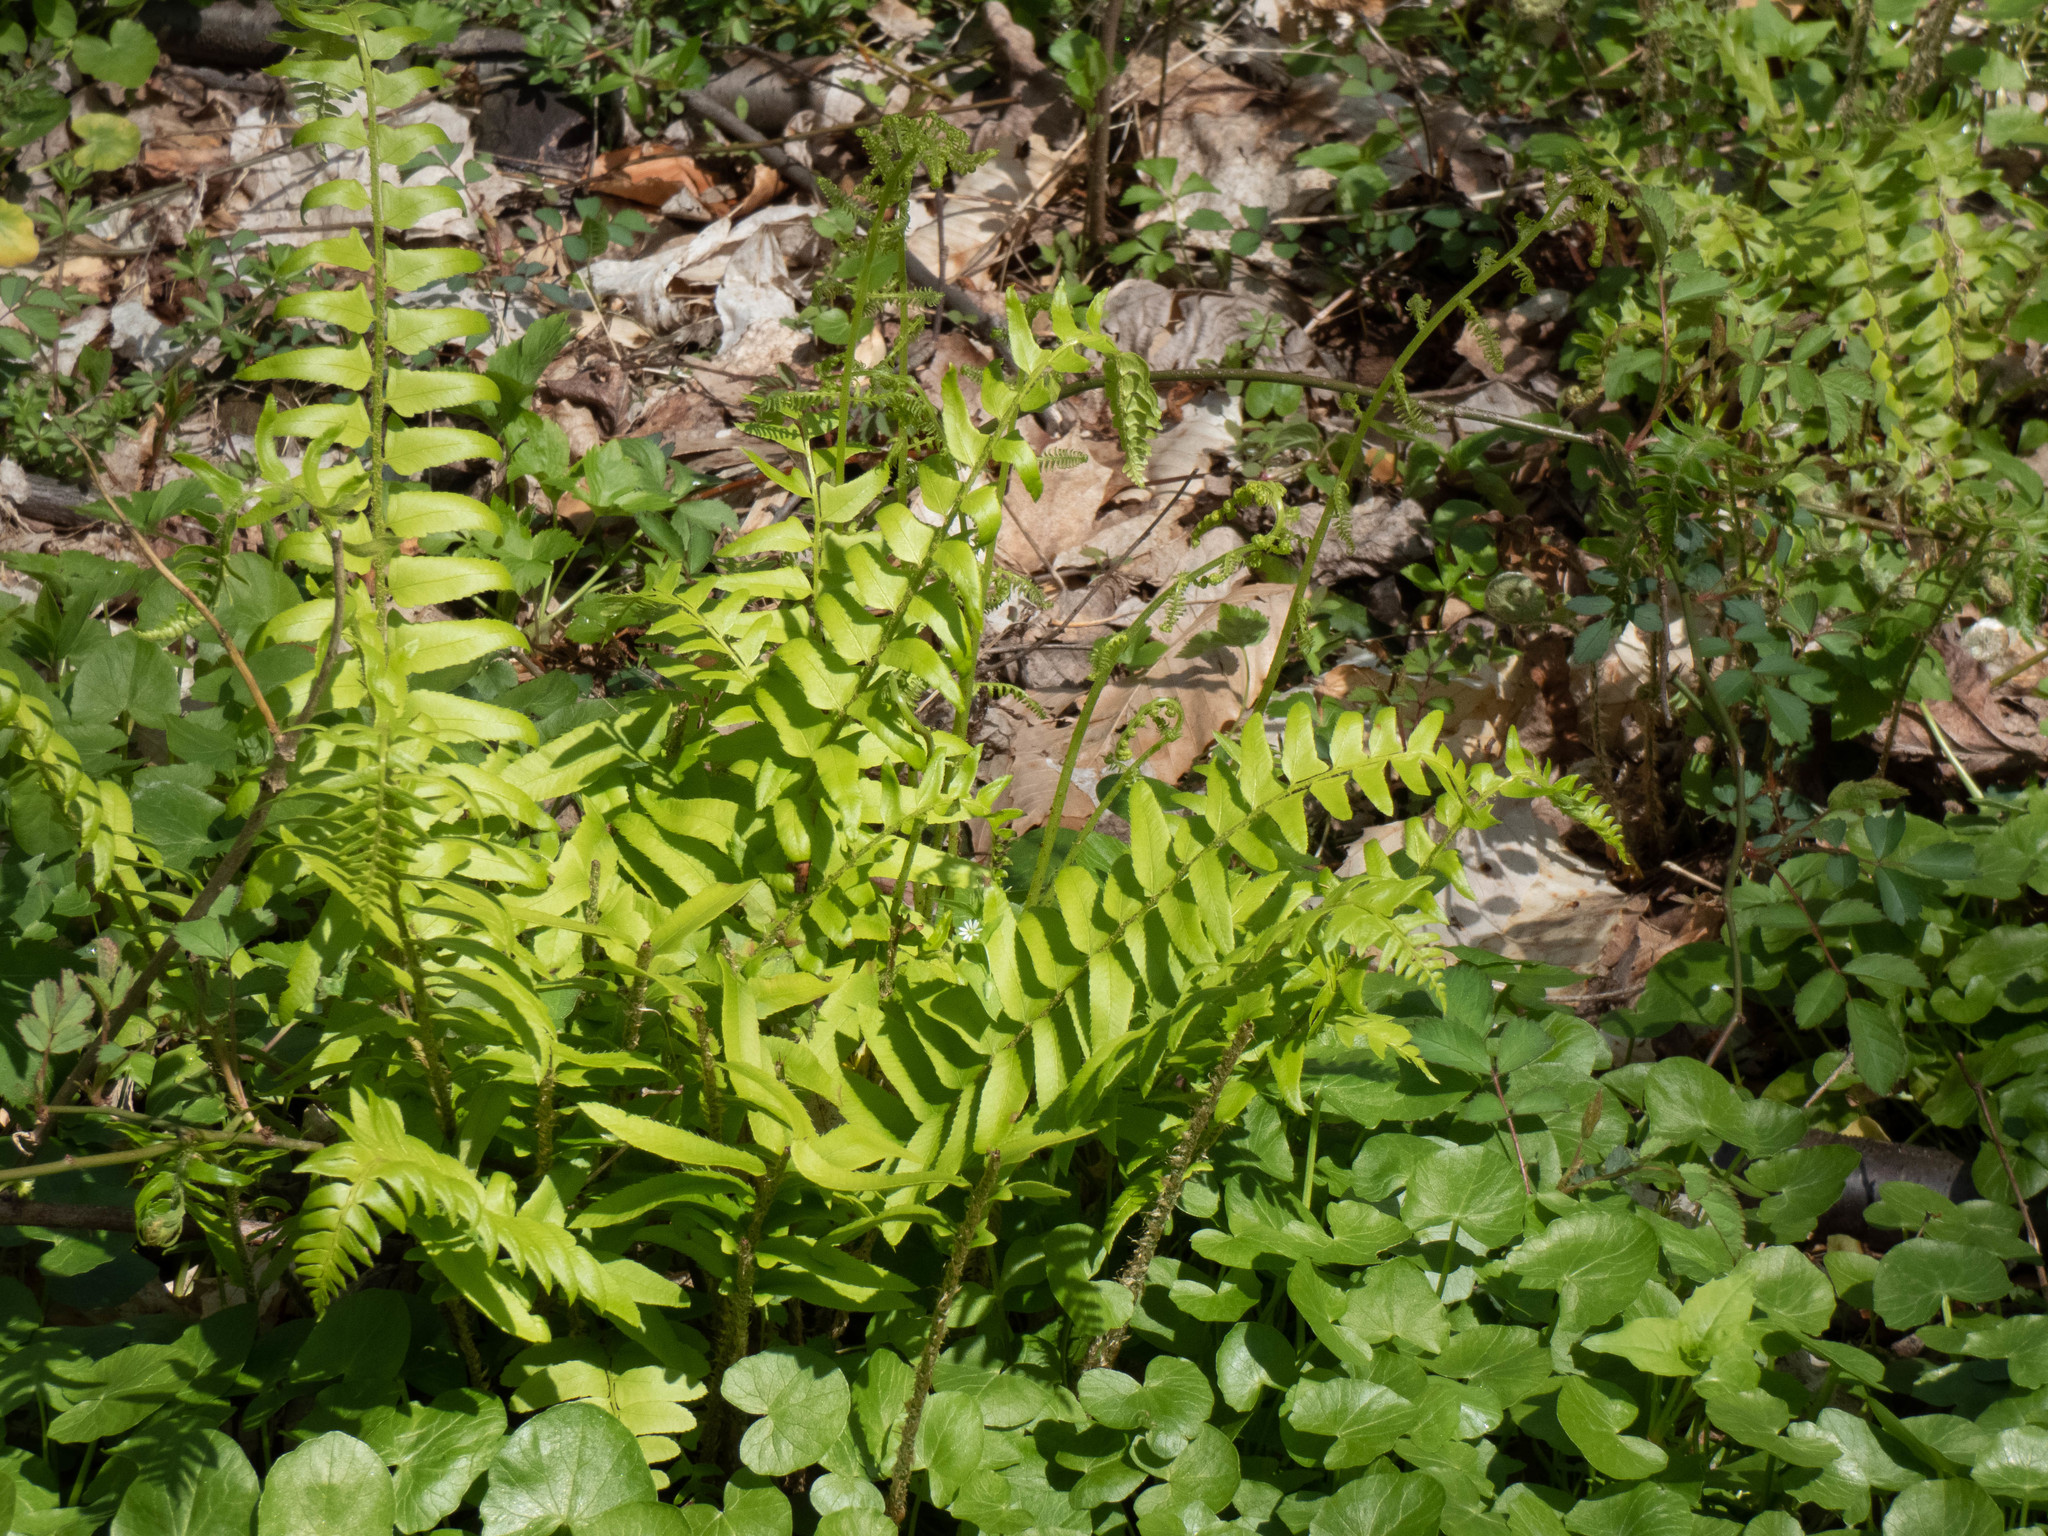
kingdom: Plantae
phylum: Tracheophyta
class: Polypodiopsida
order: Polypodiales
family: Dryopteridaceae
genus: Polystichum
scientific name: Polystichum acrostichoides
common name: Christmas fern
